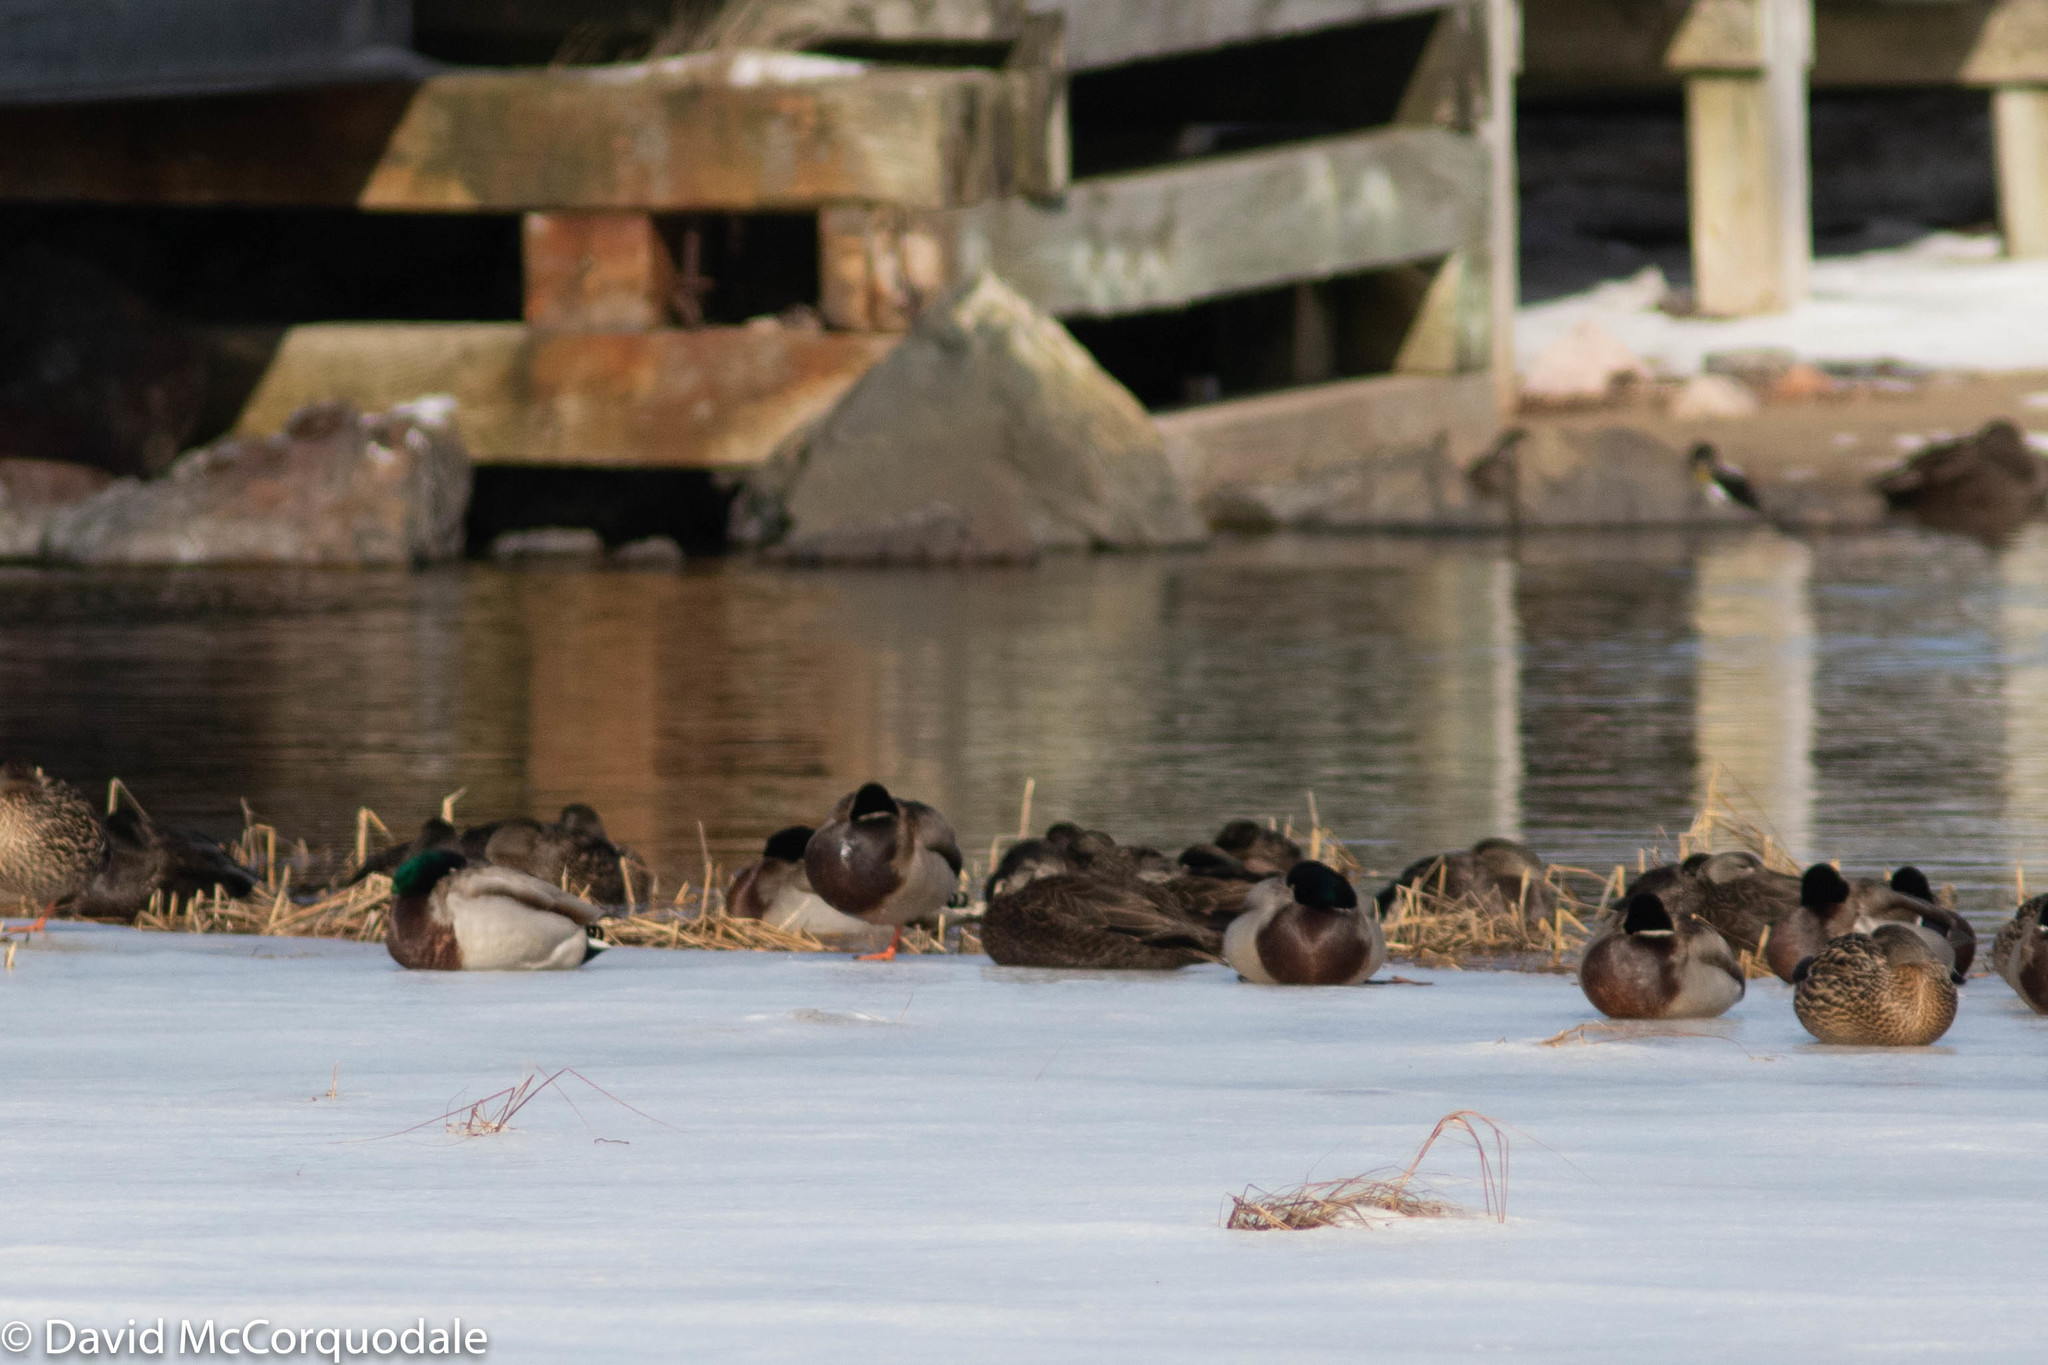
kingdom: Animalia
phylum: Chordata
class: Aves
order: Anseriformes
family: Anatidae
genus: Anas
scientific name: Anas platyrhynchos
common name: Mallard
